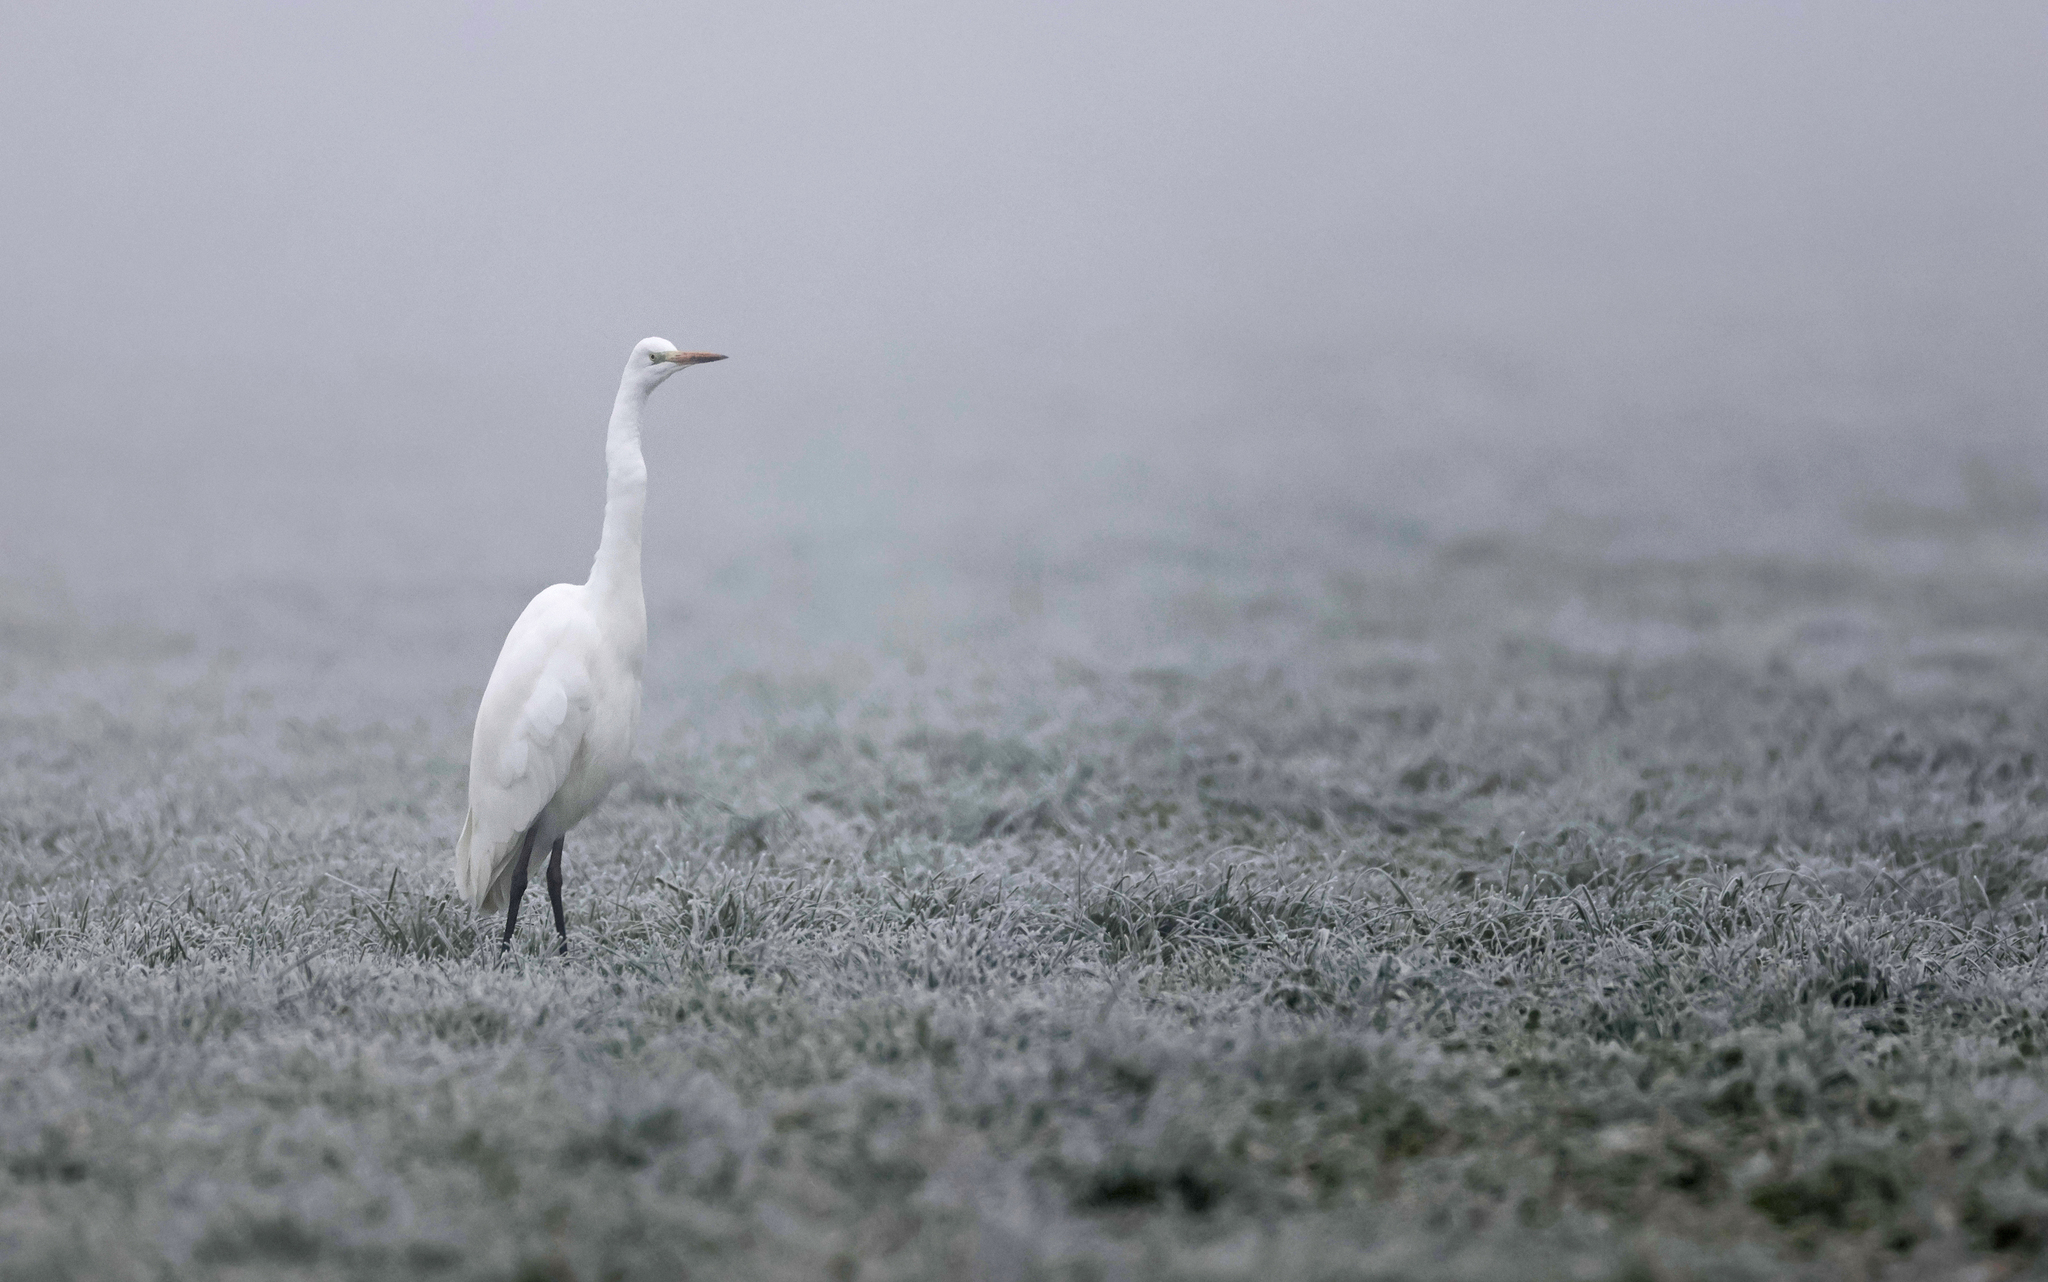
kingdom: Animalia
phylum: Chordata
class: Aves
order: Pelecaniformes
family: Ardeidae
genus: Ardea
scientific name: Ardea alba
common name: Great egret
